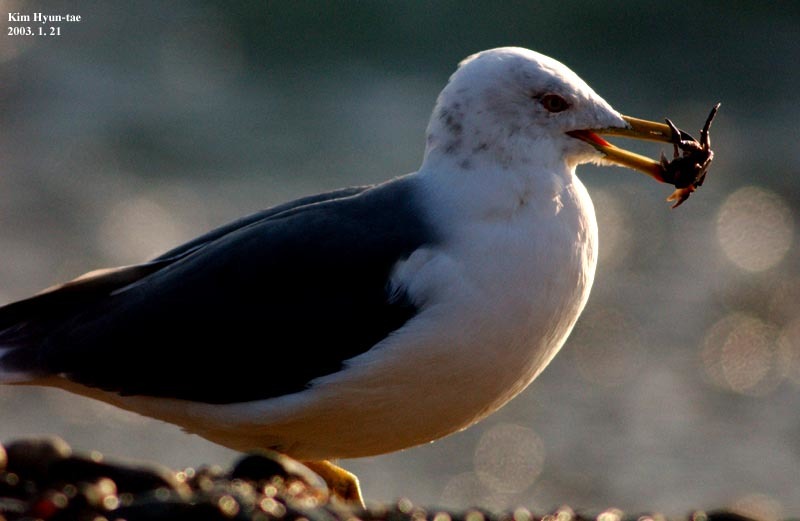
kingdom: Animalia
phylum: Chordata
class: Aves
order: Charadriiformes
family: Laridae
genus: Larus
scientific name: Larus crassirostris
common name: Black-tailed gull
